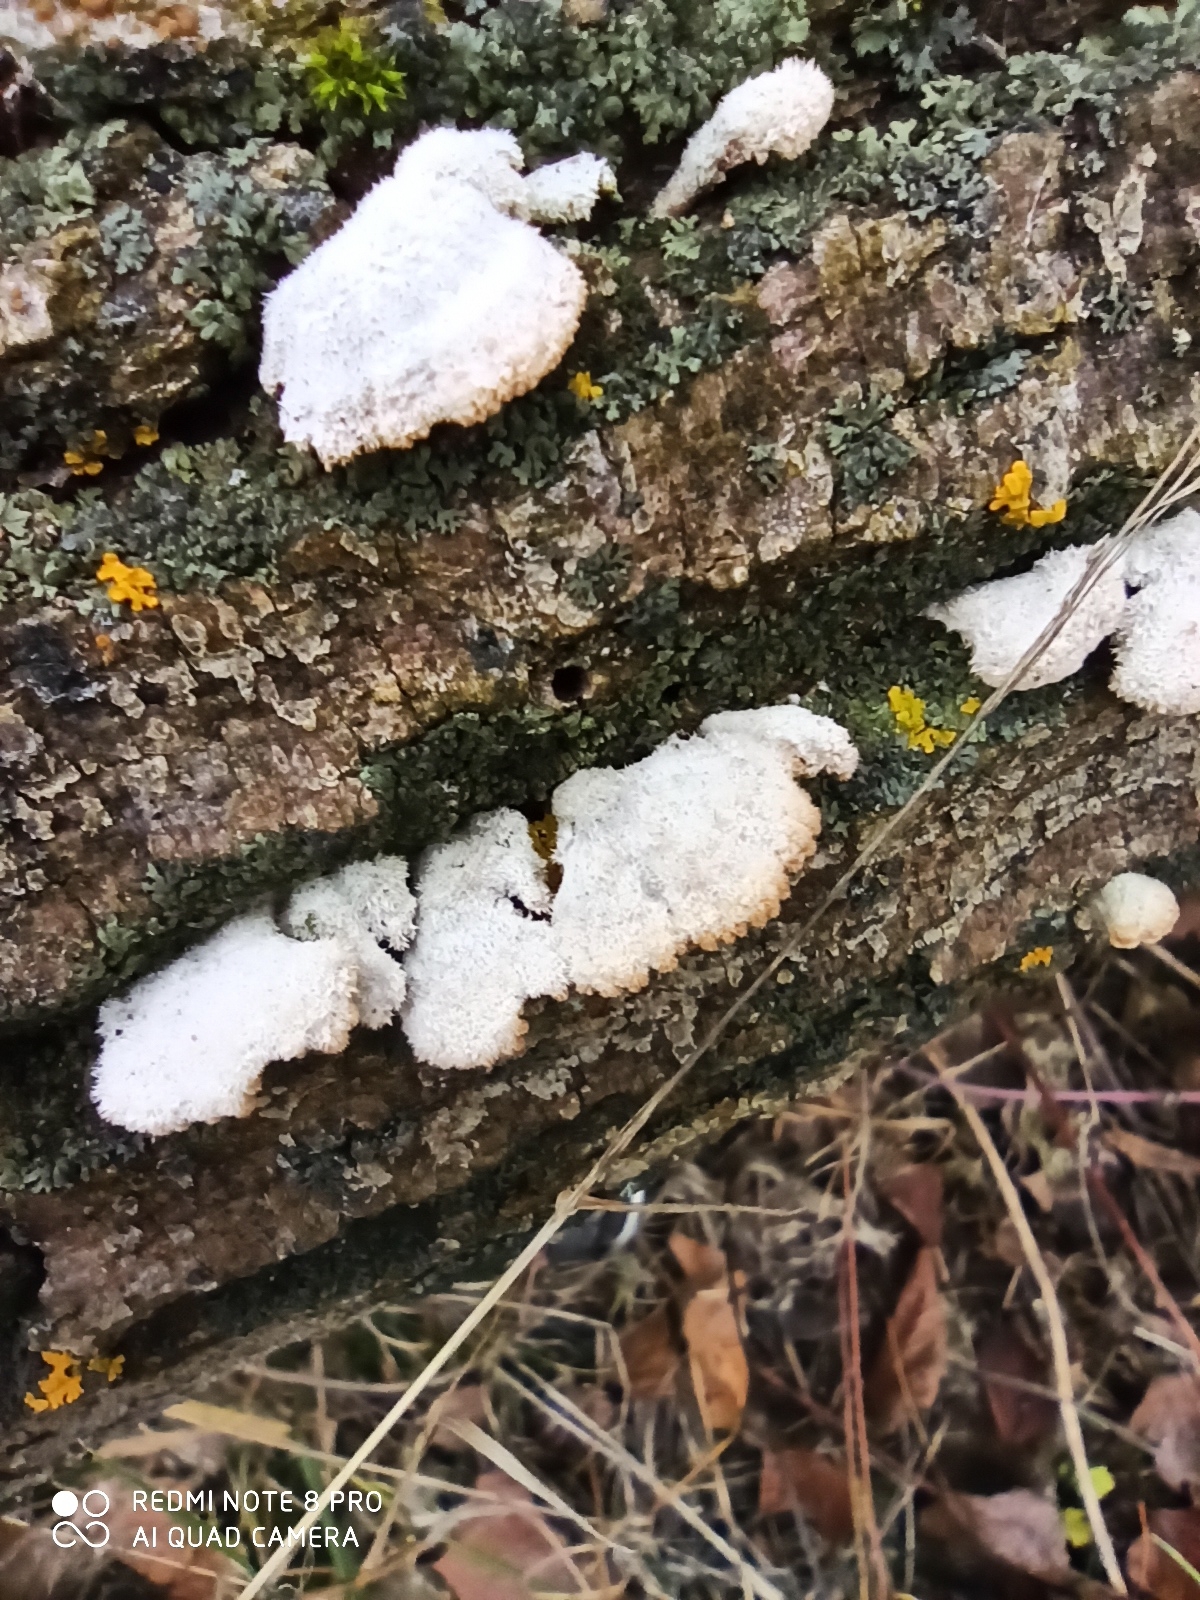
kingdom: Fungi
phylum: Basidiomycota
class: Agaricomycetes
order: Agaricales
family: Schizophyllaceae
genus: Schizophyllum
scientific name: Schizophyllum commune
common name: Common porecrust
